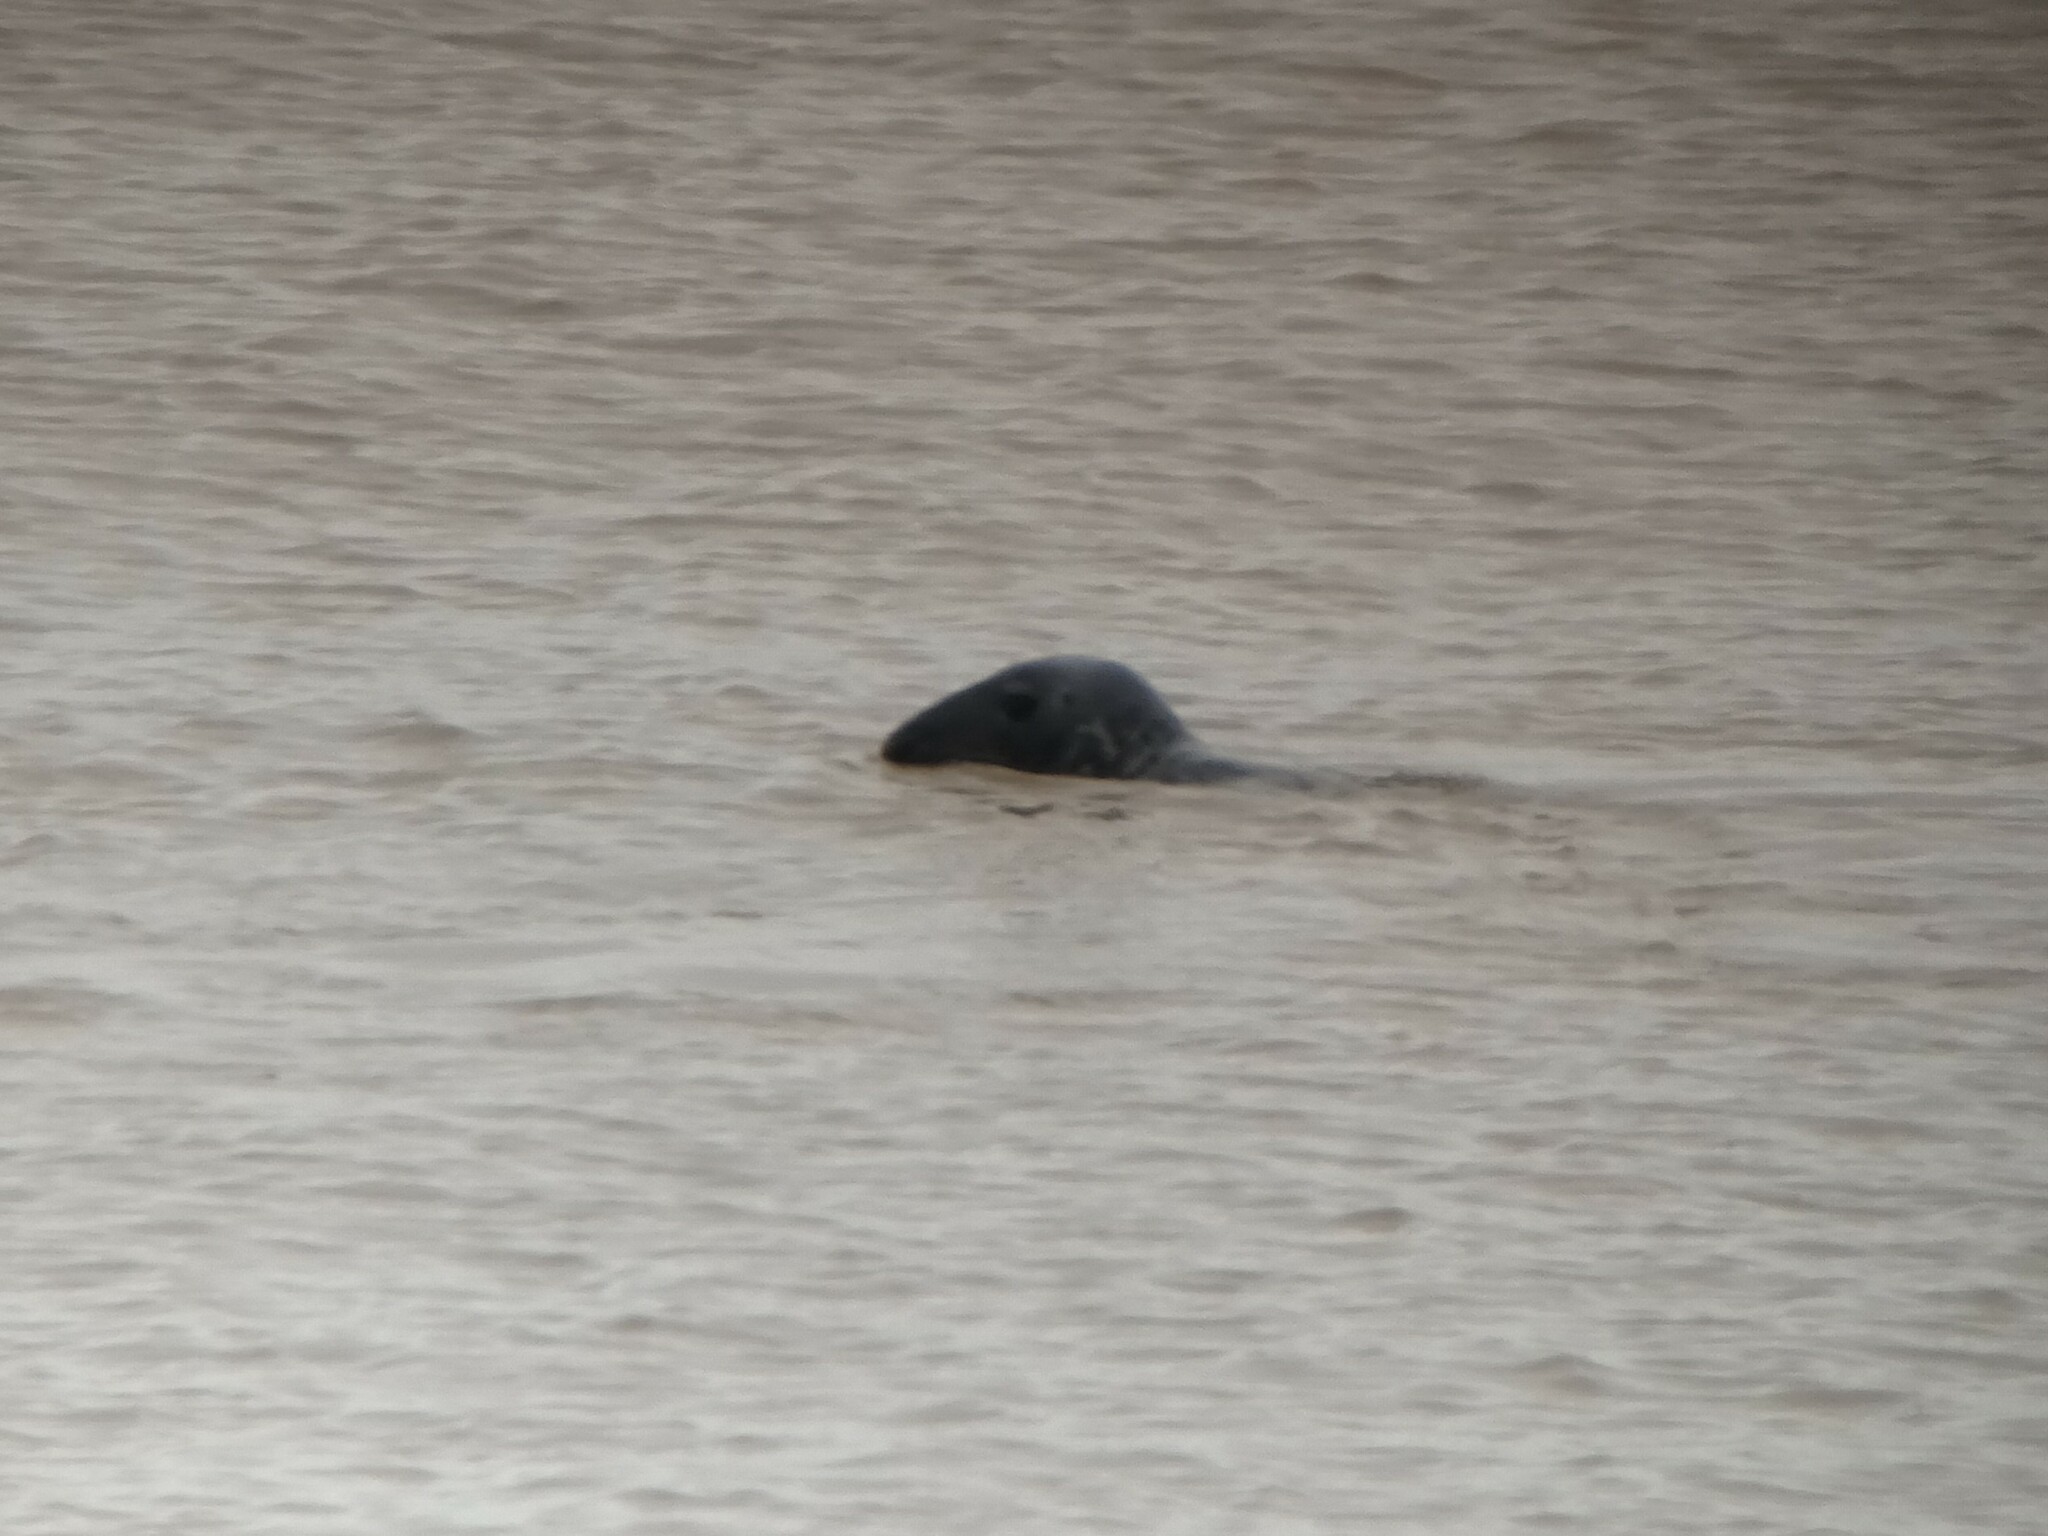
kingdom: Animalia
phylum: Chordata
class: Mammalia
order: Carnivora
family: Phocidae
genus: Halichoerus
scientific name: Halichoerus grypus
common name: Grey seal
